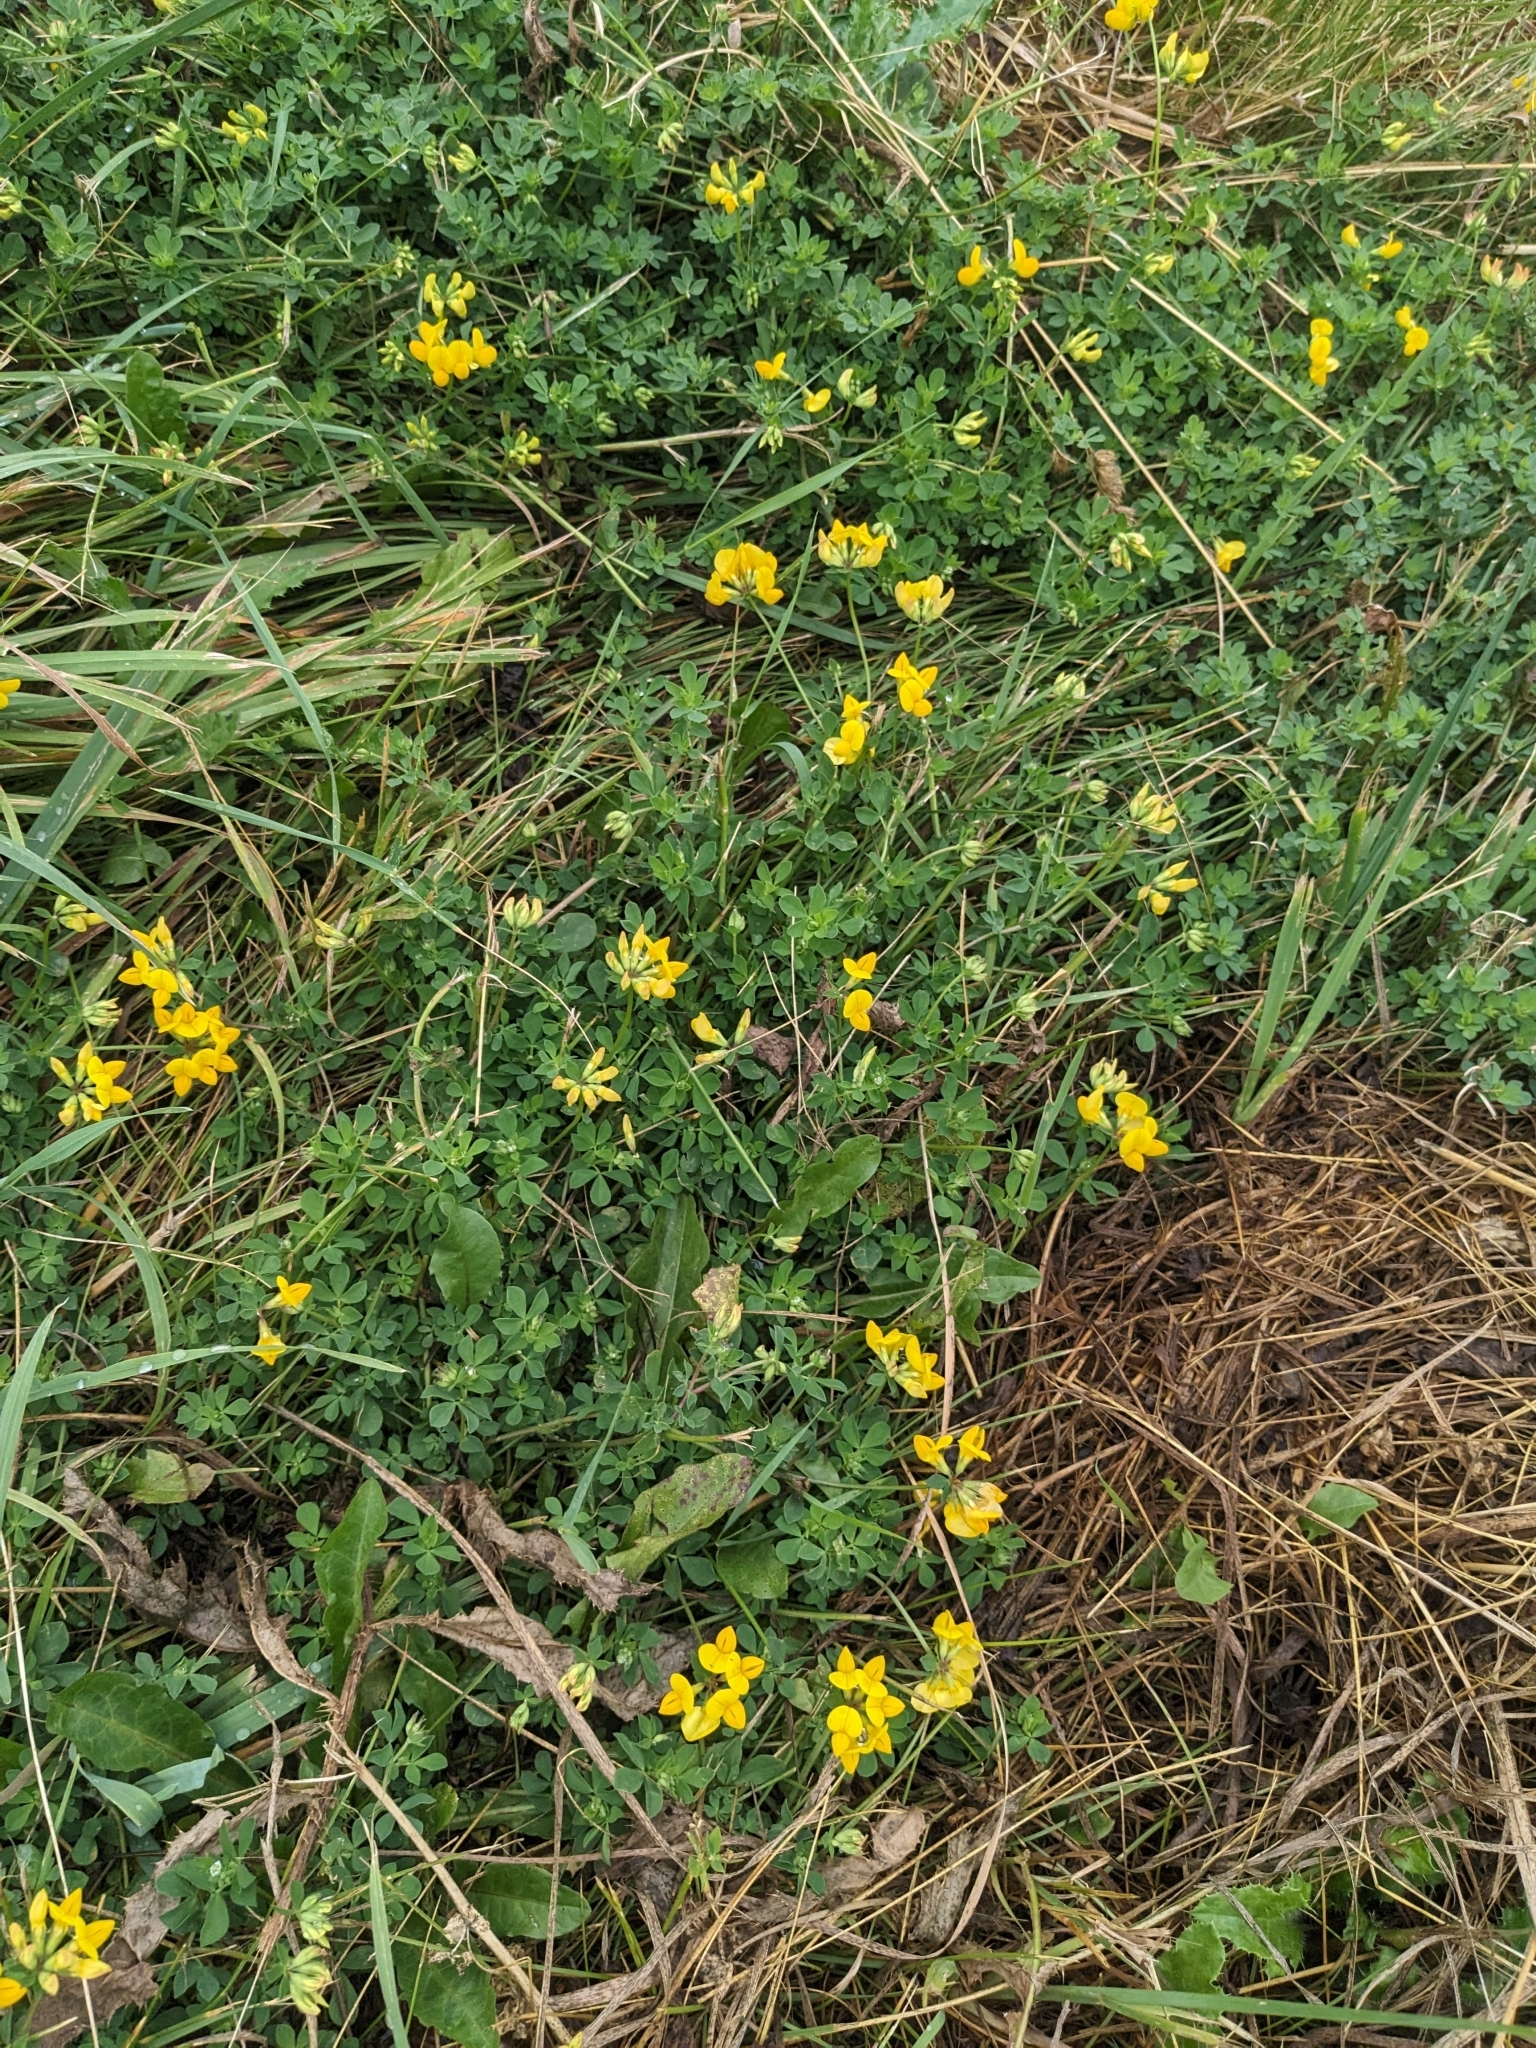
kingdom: Plantae
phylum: Tracheophyta
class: Magnoliopsida
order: Fabales
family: Fabaceae
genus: Lotus
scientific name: Lotus corniculatus
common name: Common bird's-foot-trefoil
